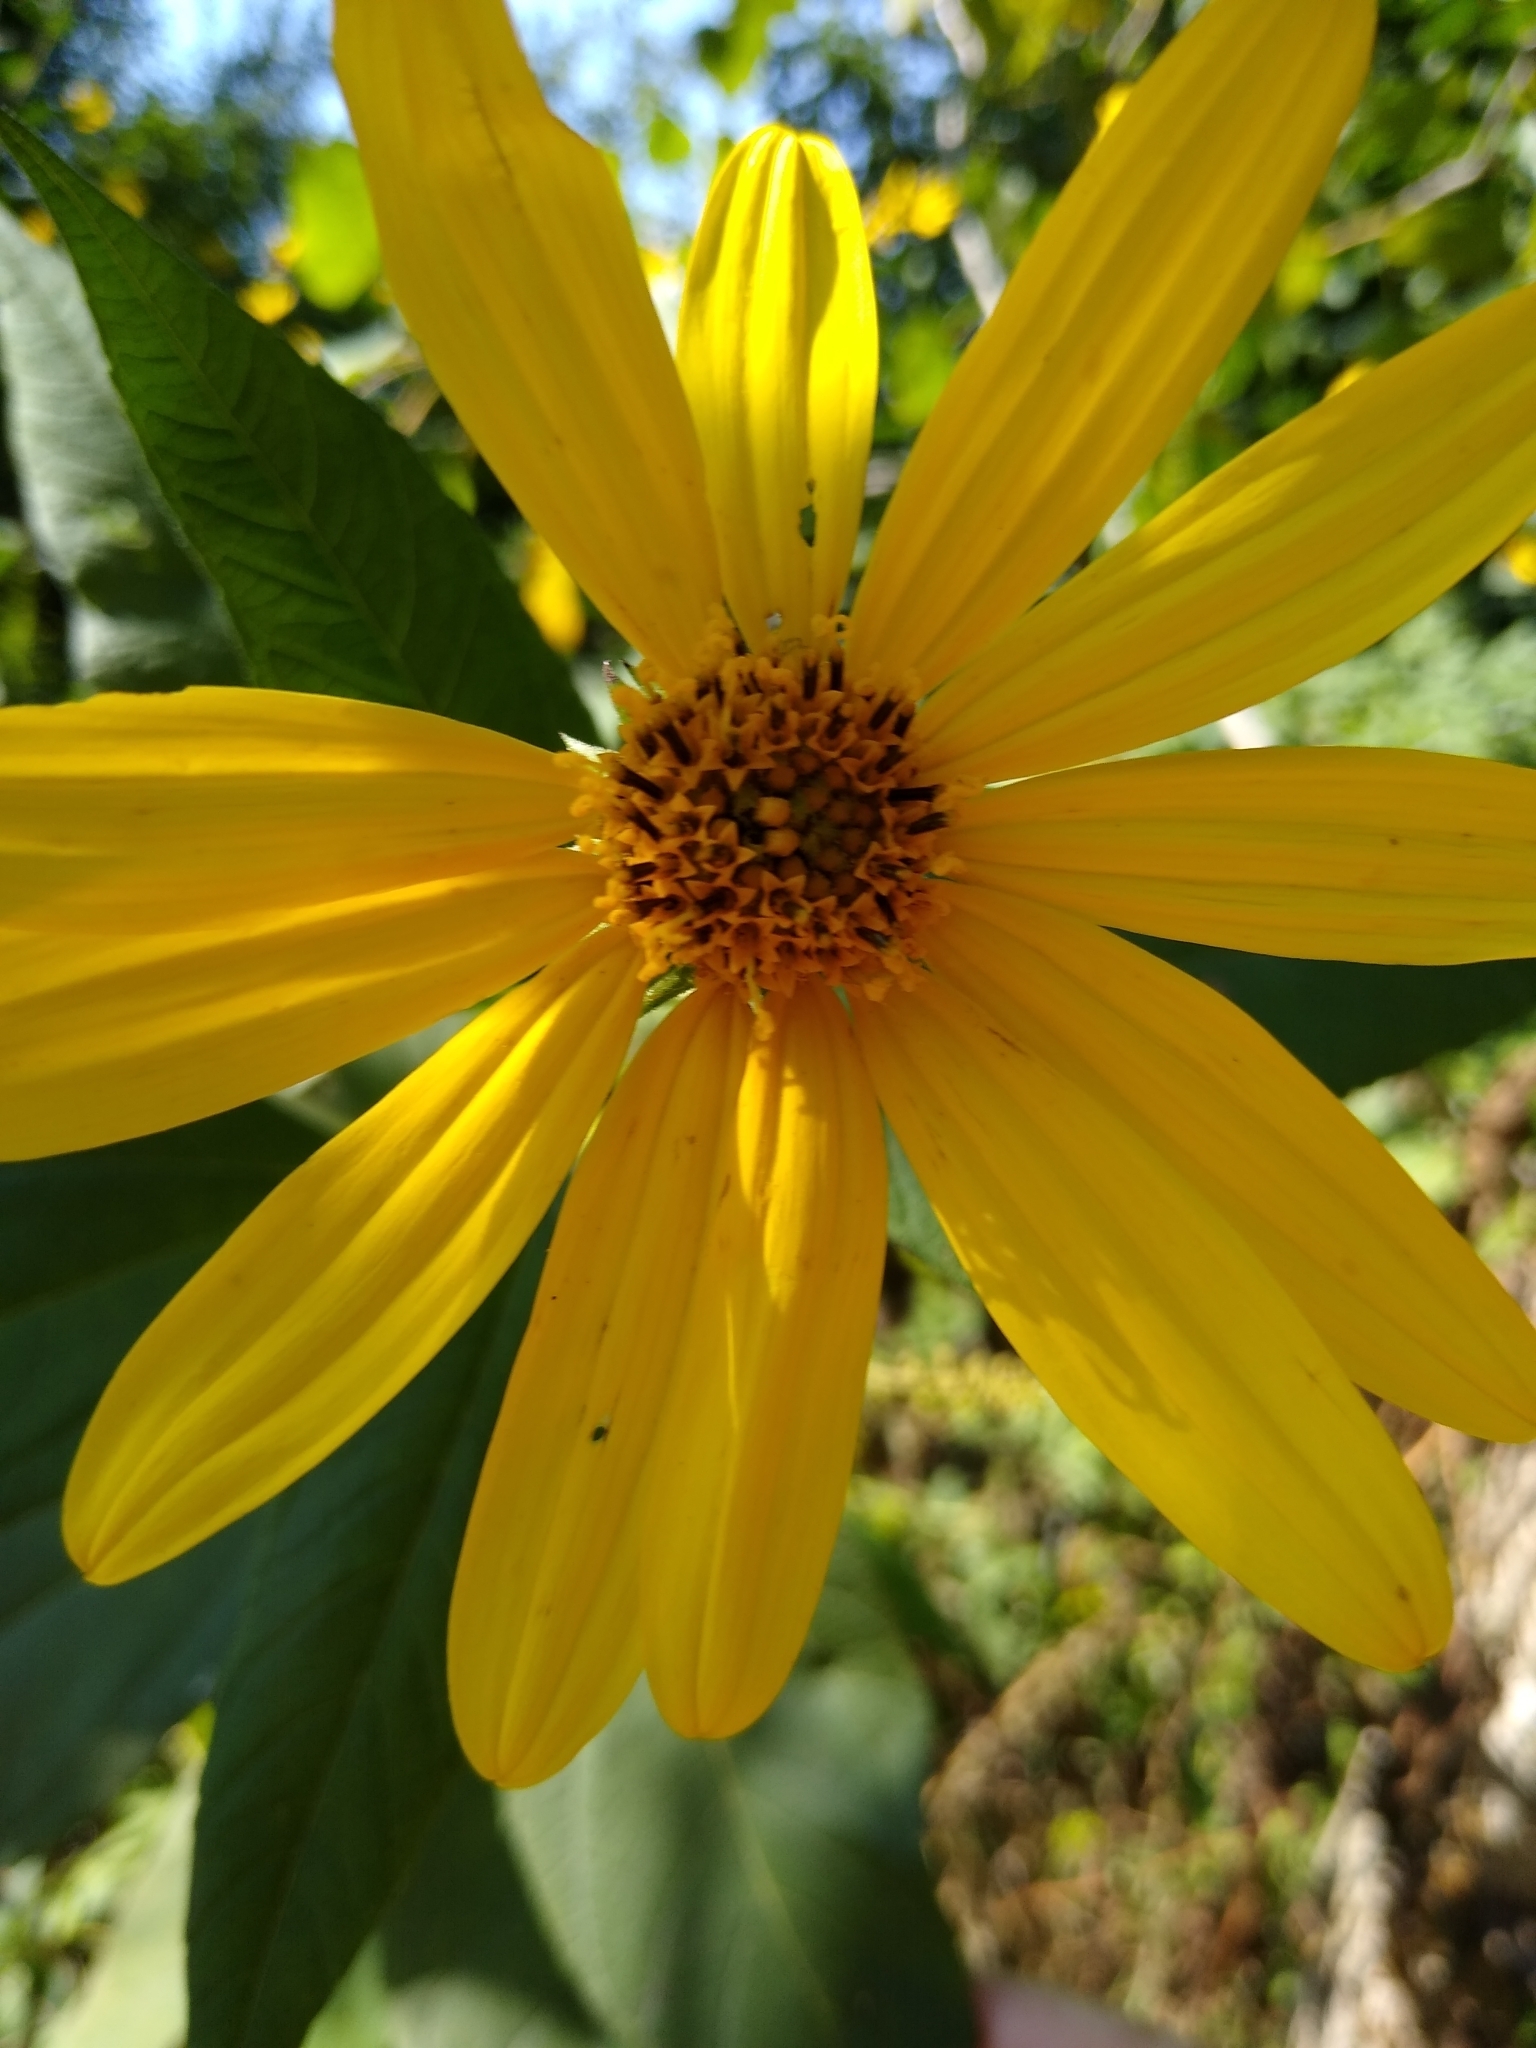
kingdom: Plantae
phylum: Tracheophyta
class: Magnoliopsida
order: Asterales
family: Asteraceae
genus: Helianthus
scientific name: Helianthus tuberosus
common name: Jerusalem artichoke
